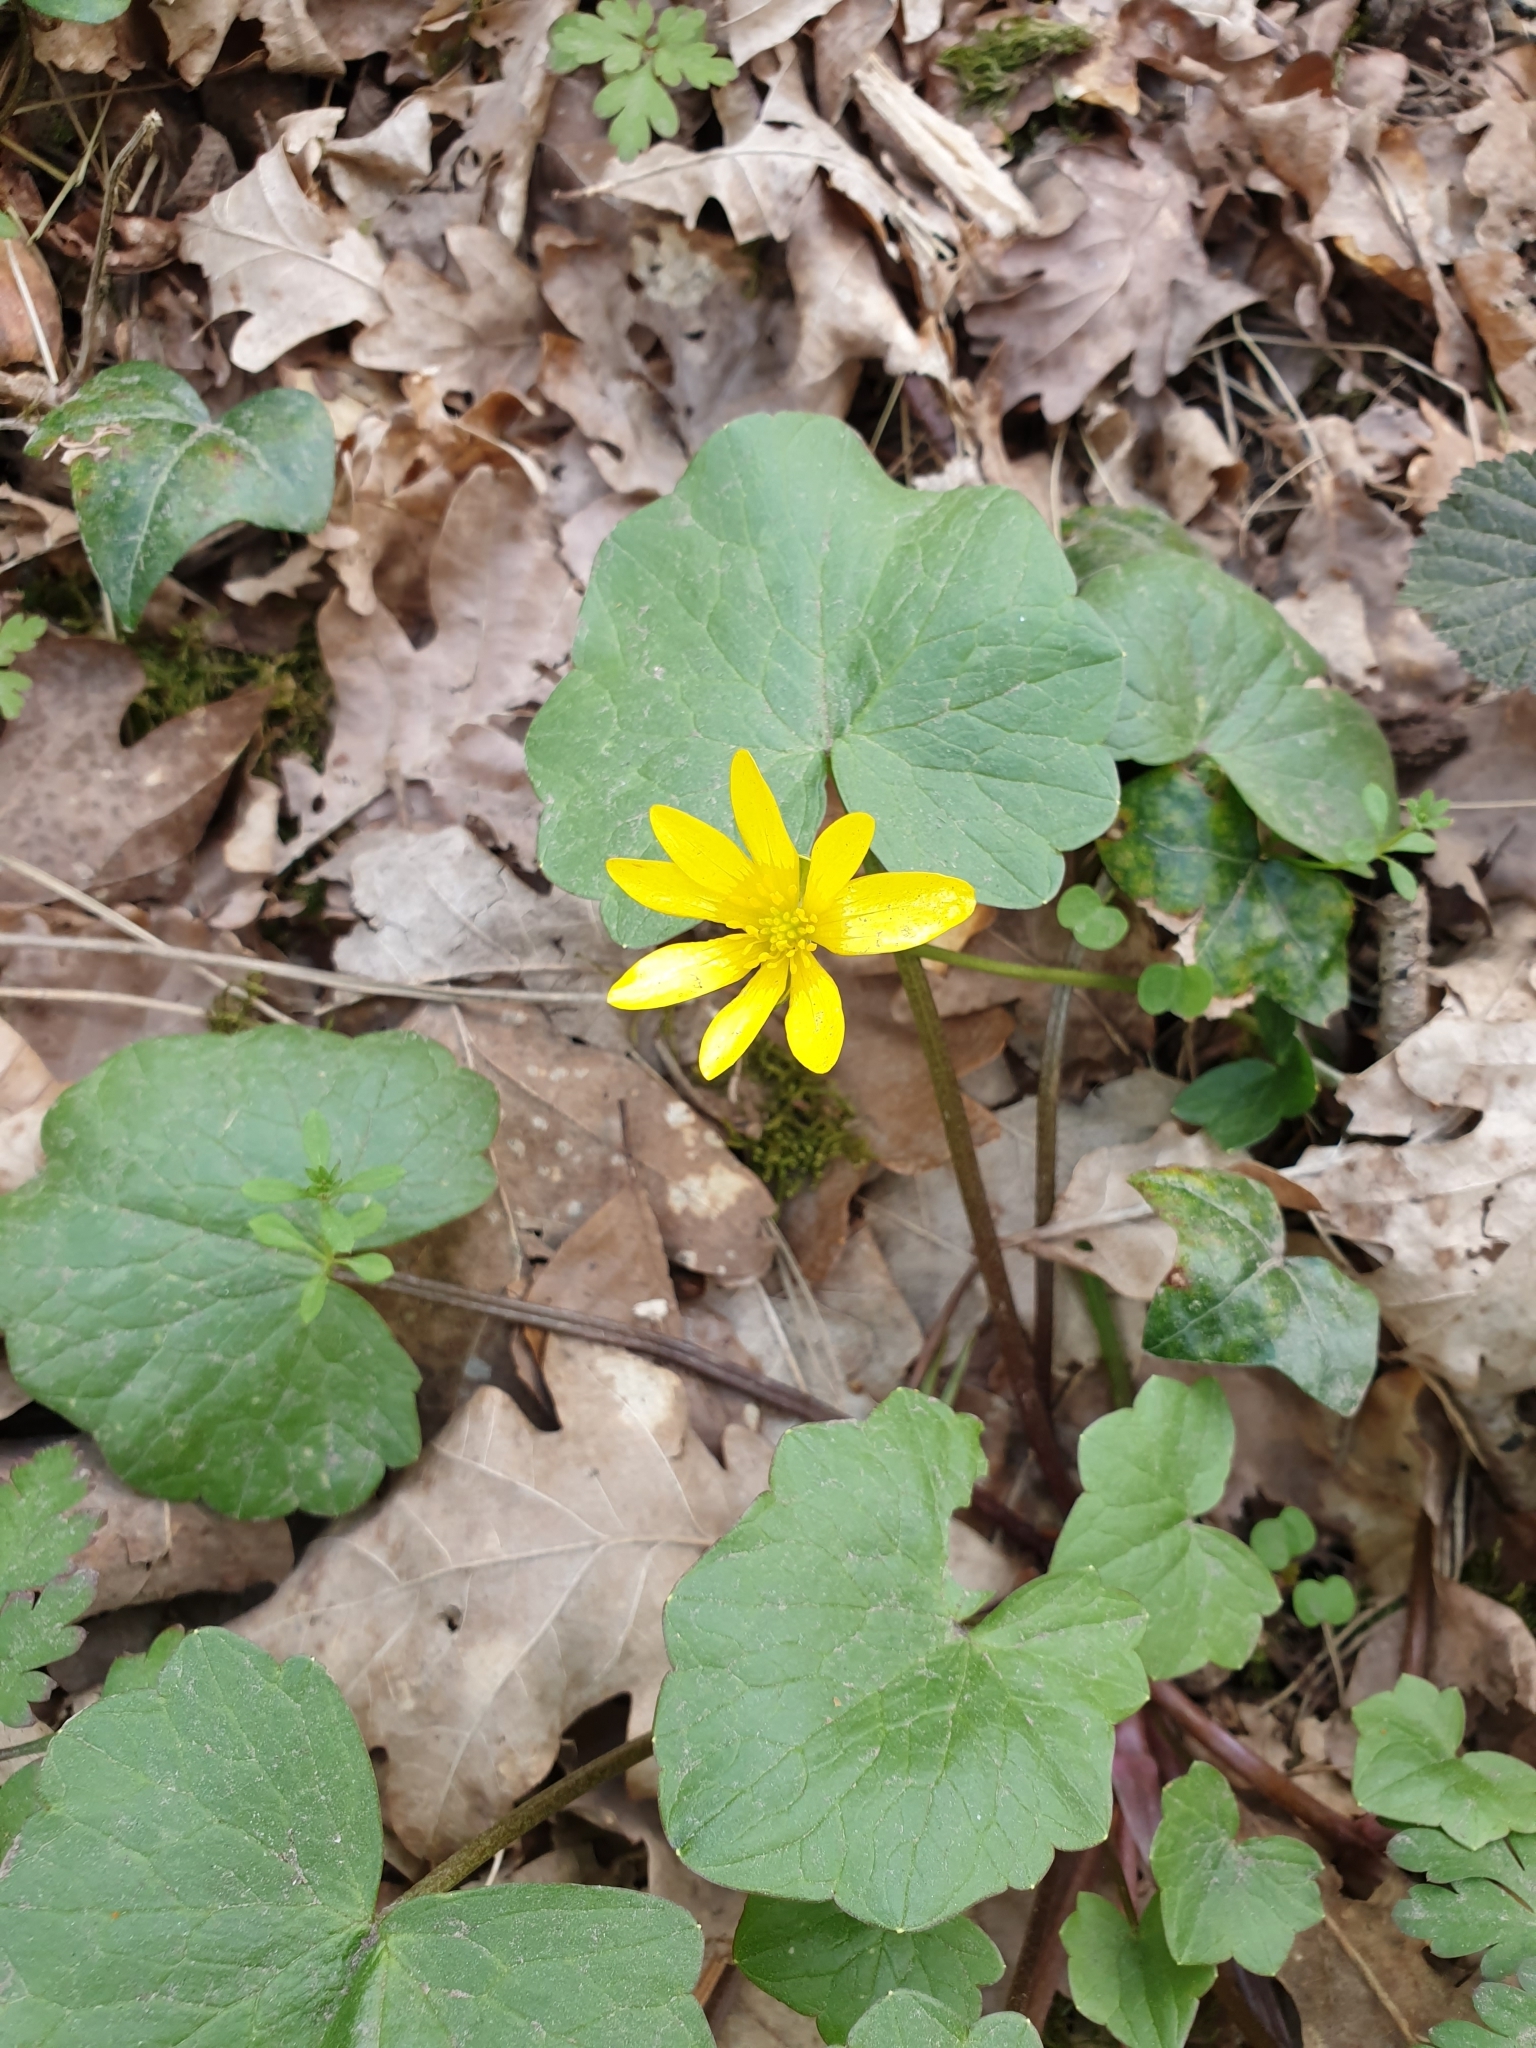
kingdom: Plantae
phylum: Tracheophyta
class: Magnoliopsida
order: Ranunculales
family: Ranunculaceae
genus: Ficaria
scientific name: Ficaria verna
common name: Lesser celandine
